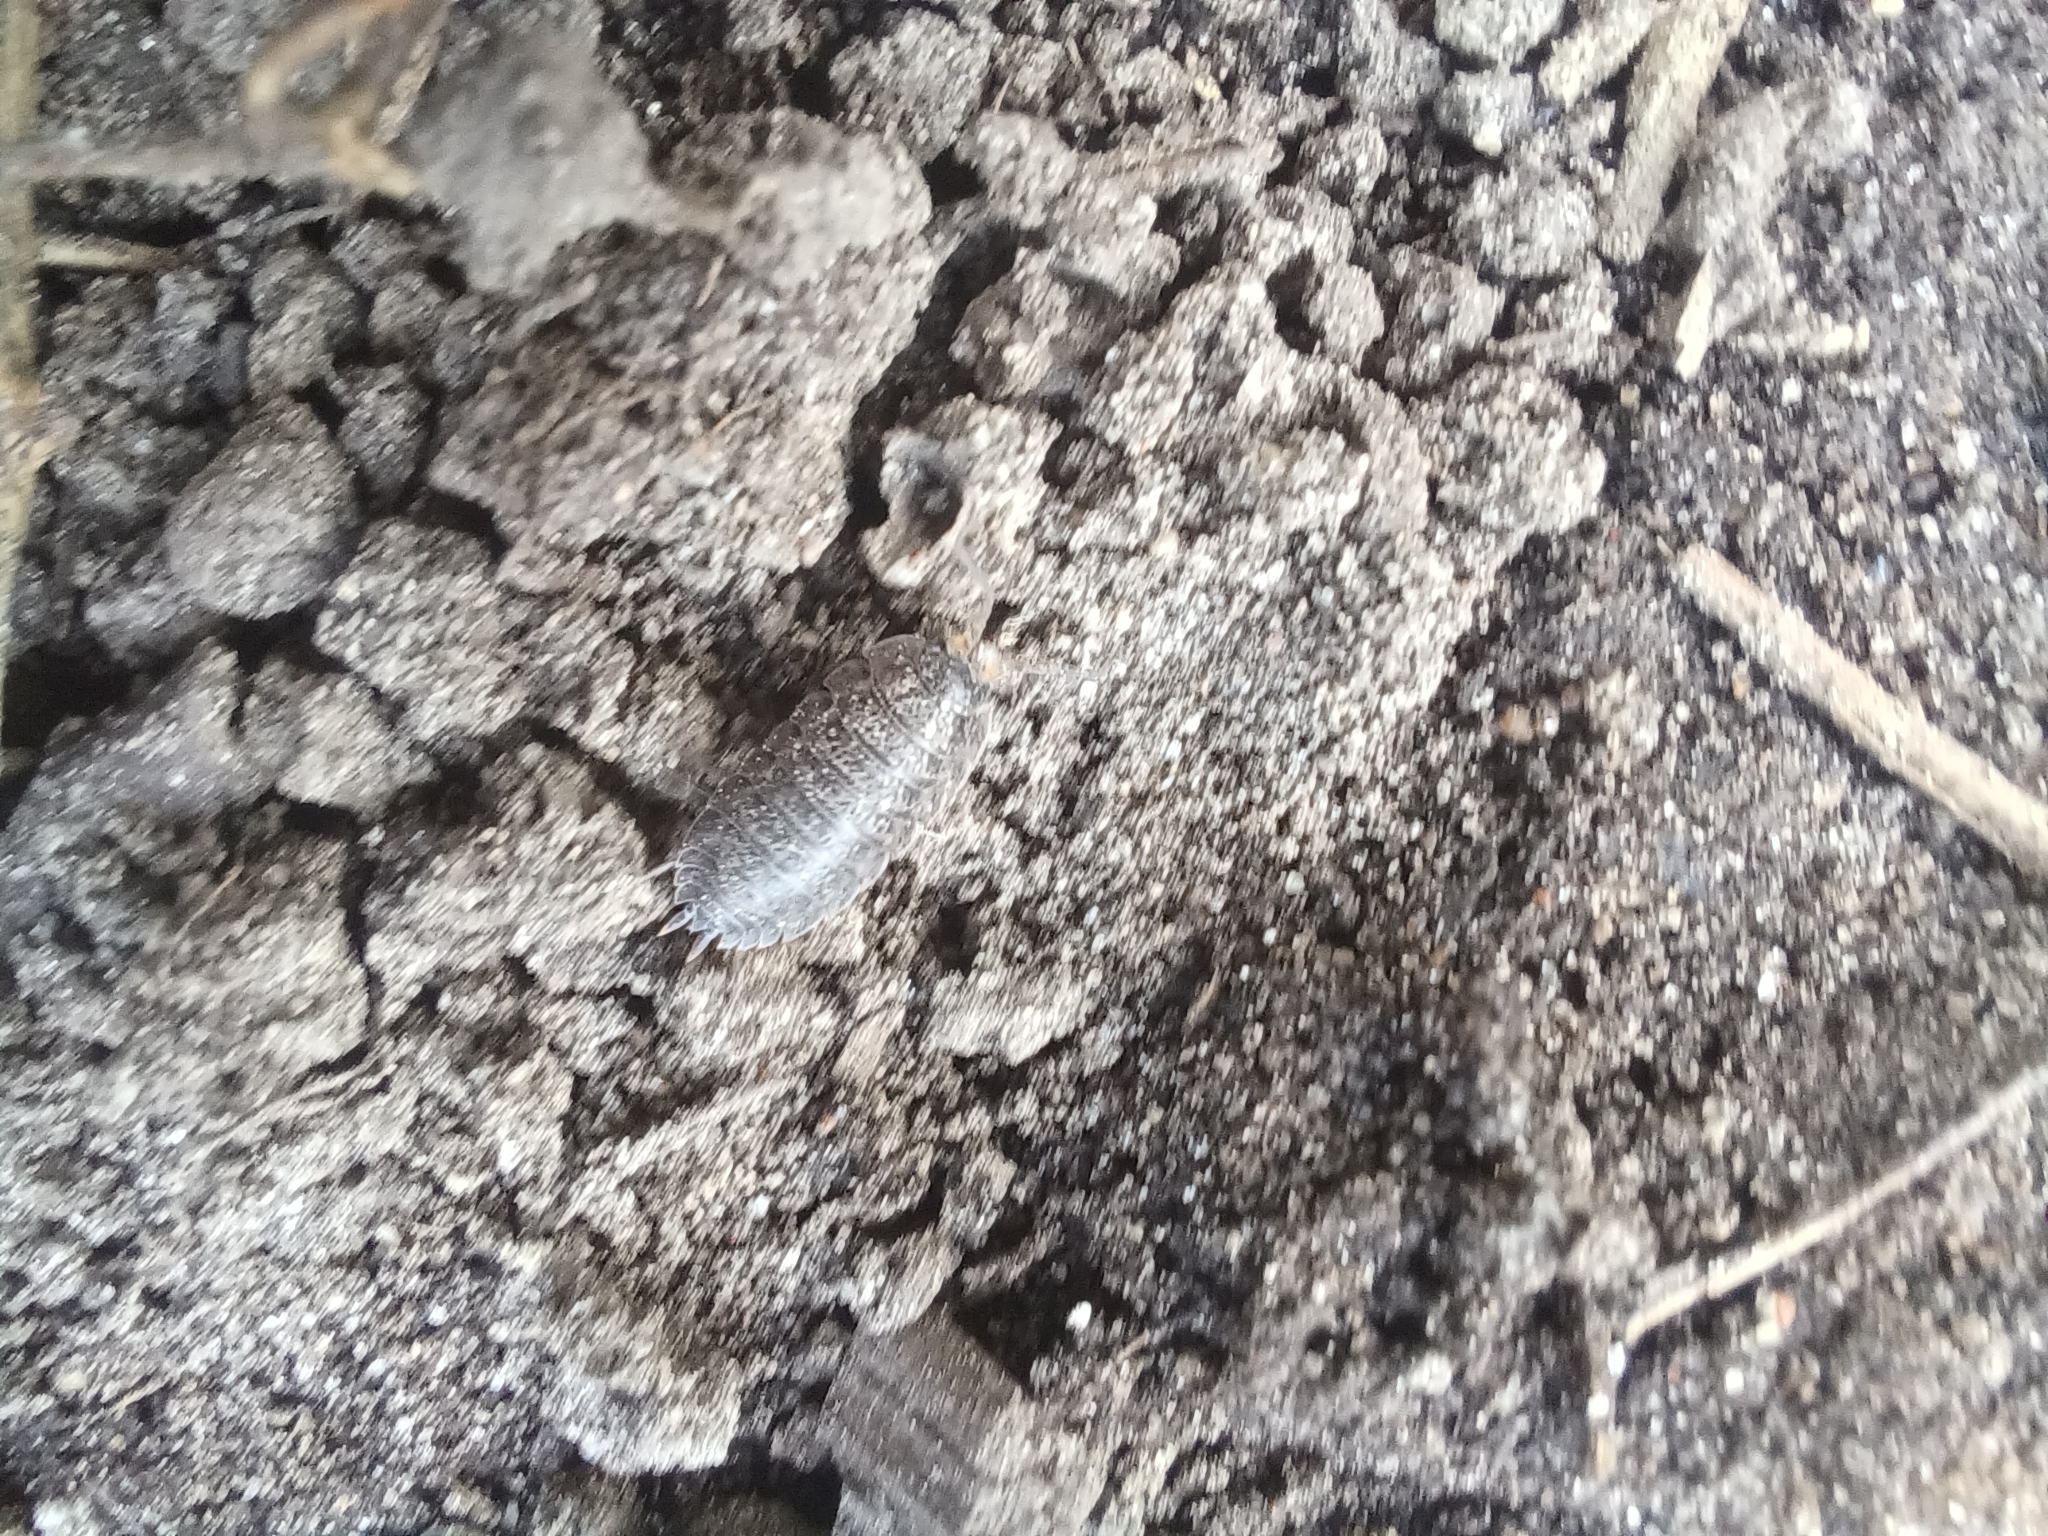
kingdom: Animalia
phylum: Arthropoda
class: Malacostraca
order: Isopoda
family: Trachelipodidae
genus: Trachelipus
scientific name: Trachelipus rathkii
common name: Isopod
